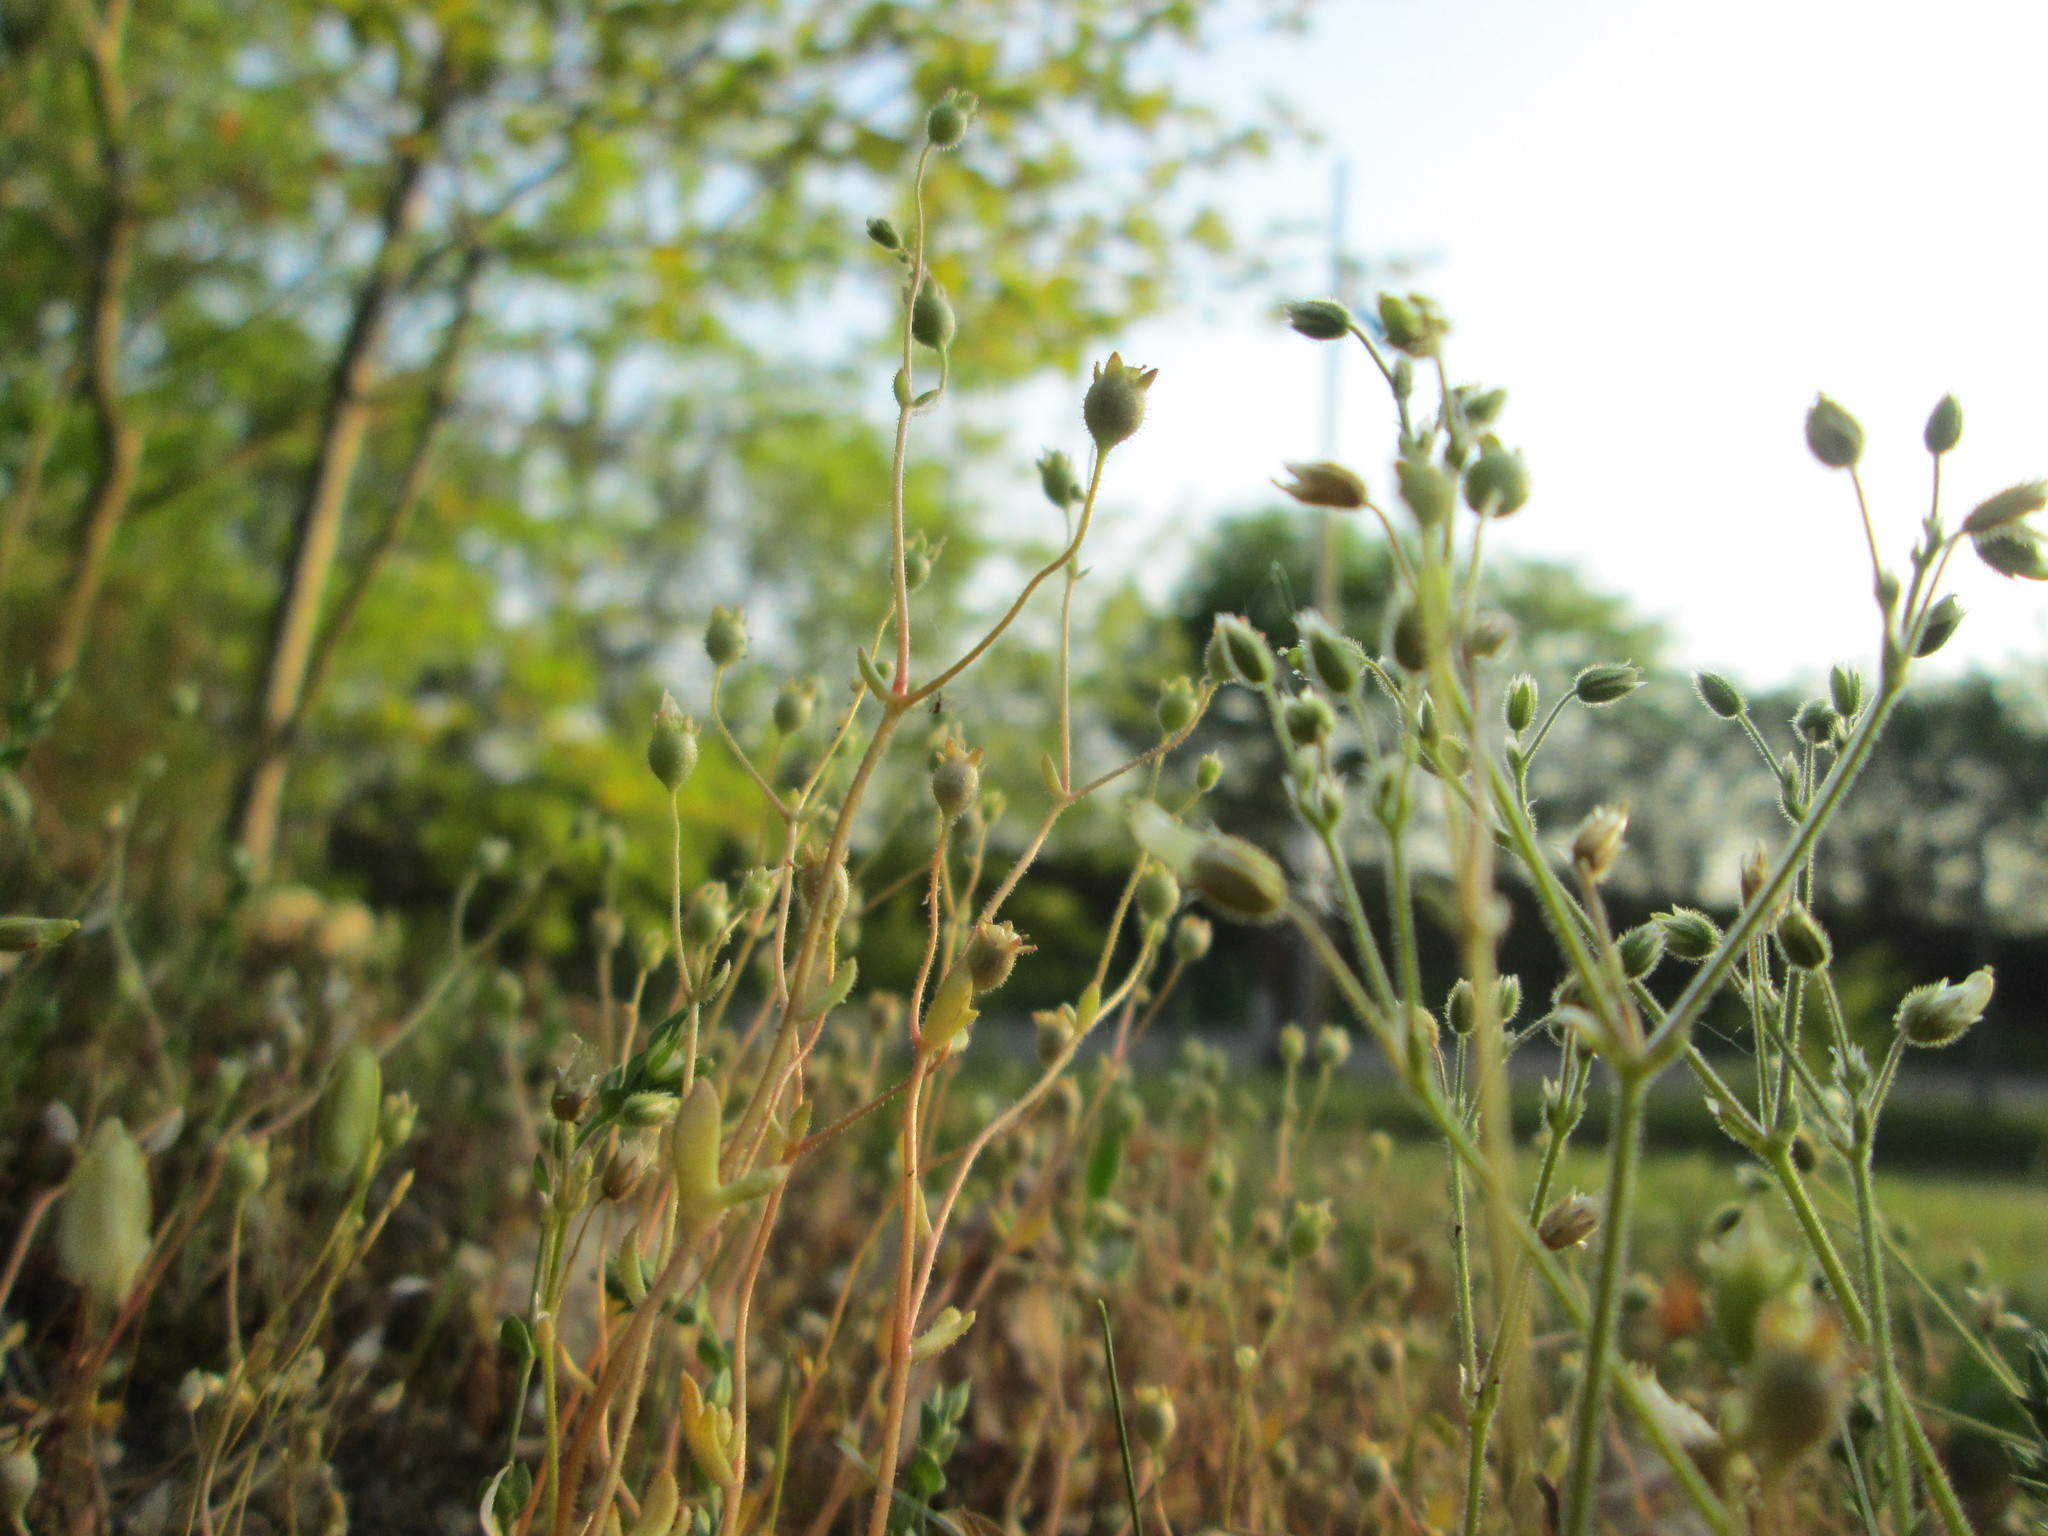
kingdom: Plantae
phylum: Tracheophyta
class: Magnoliopsida
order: Saxifragales
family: Saxifragaceae
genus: Saxifraga
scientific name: Saxifraga tridactylites
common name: Rue-leaved saxifrage
